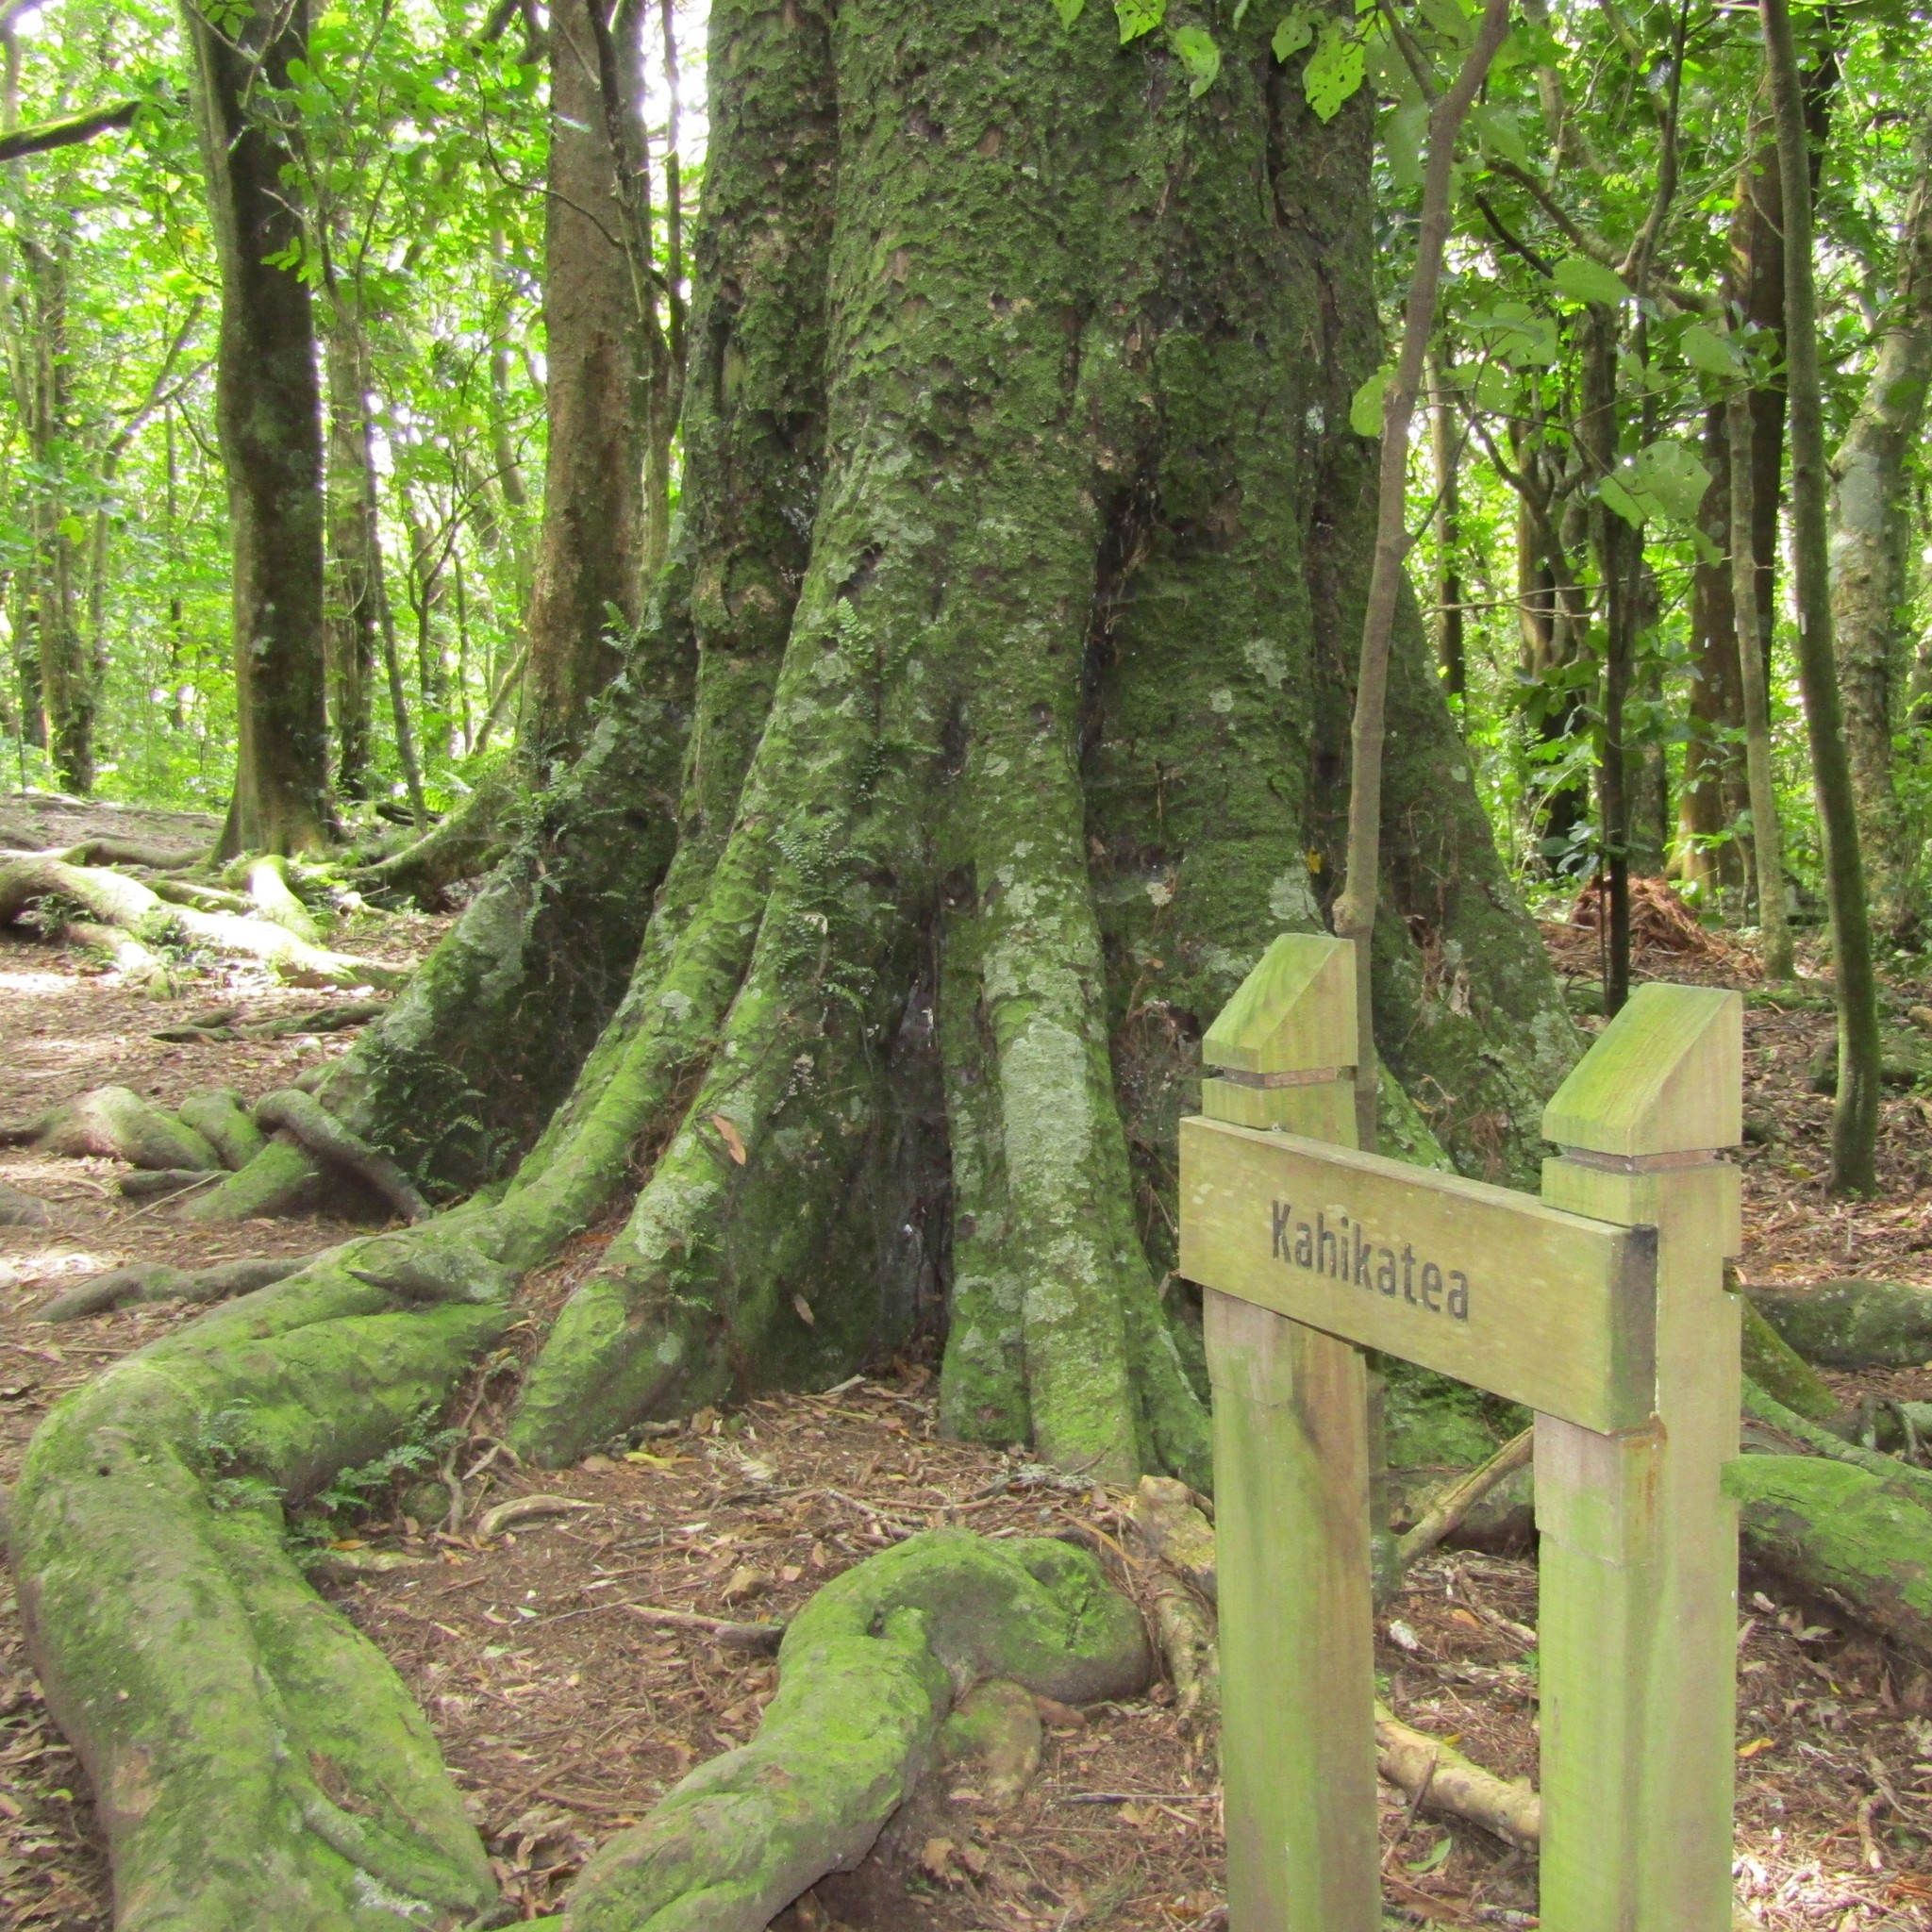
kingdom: Plantae
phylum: Tracheophyta
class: Pinopsida
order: Pinales
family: Podocarpaceae
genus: Dacrycarpus
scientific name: Dacrycarpus dacrydioides
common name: White pine
